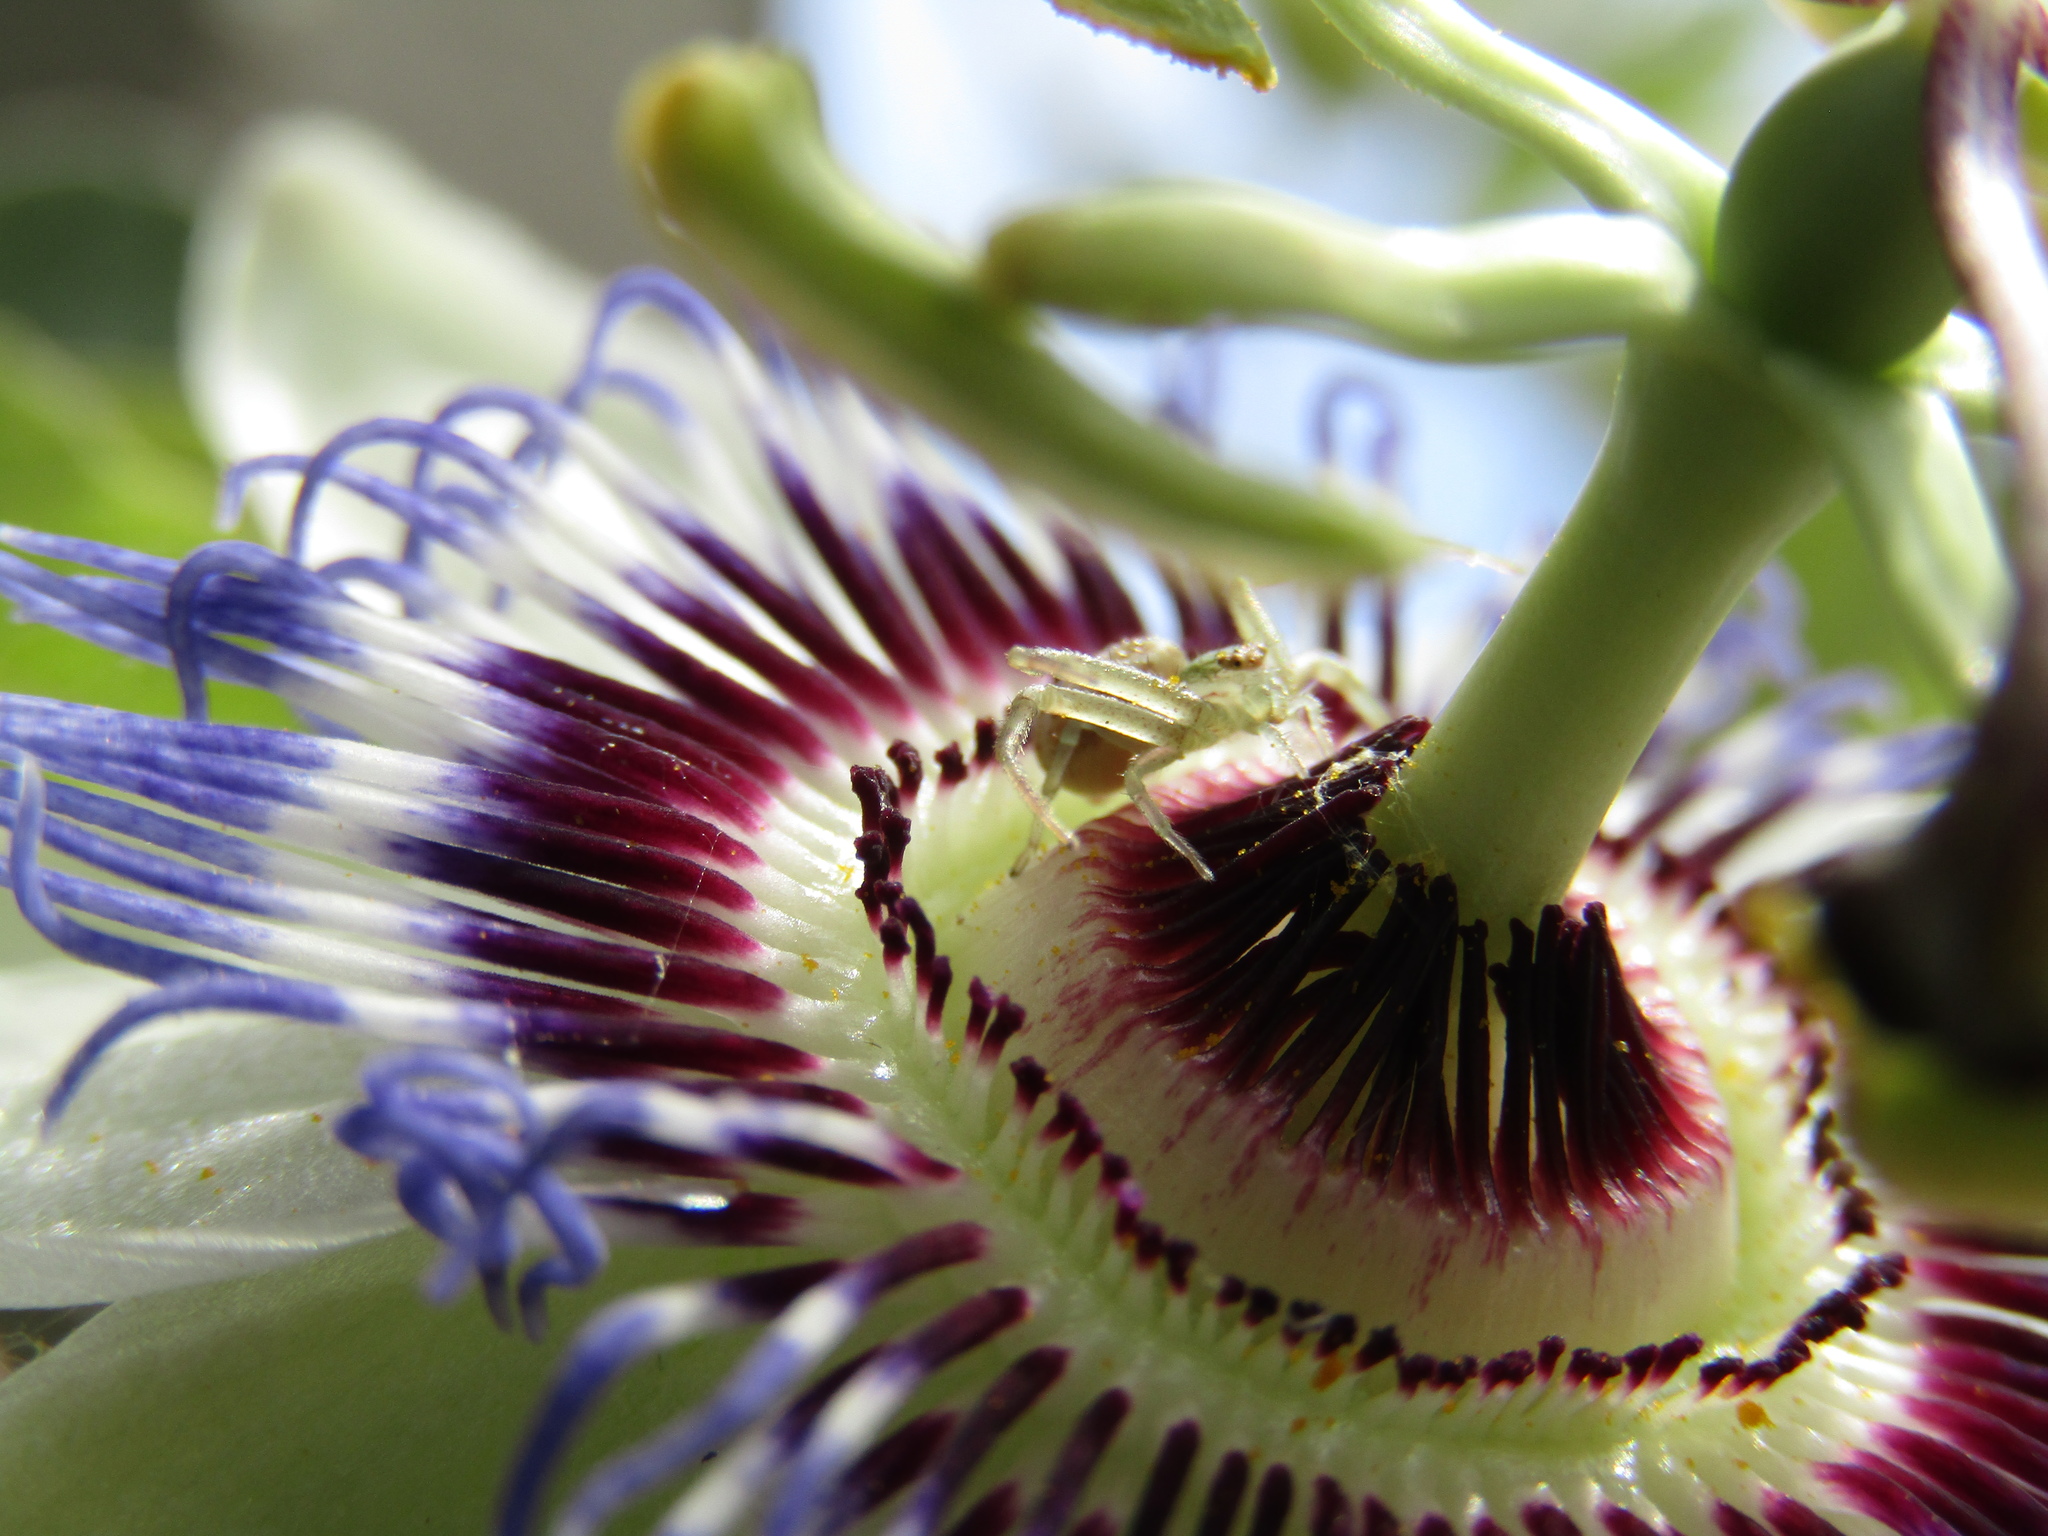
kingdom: Animalia
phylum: Arthropoda
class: Arachnida
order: Araneae
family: Thomisidae
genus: Misumenops
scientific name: Misumenops
